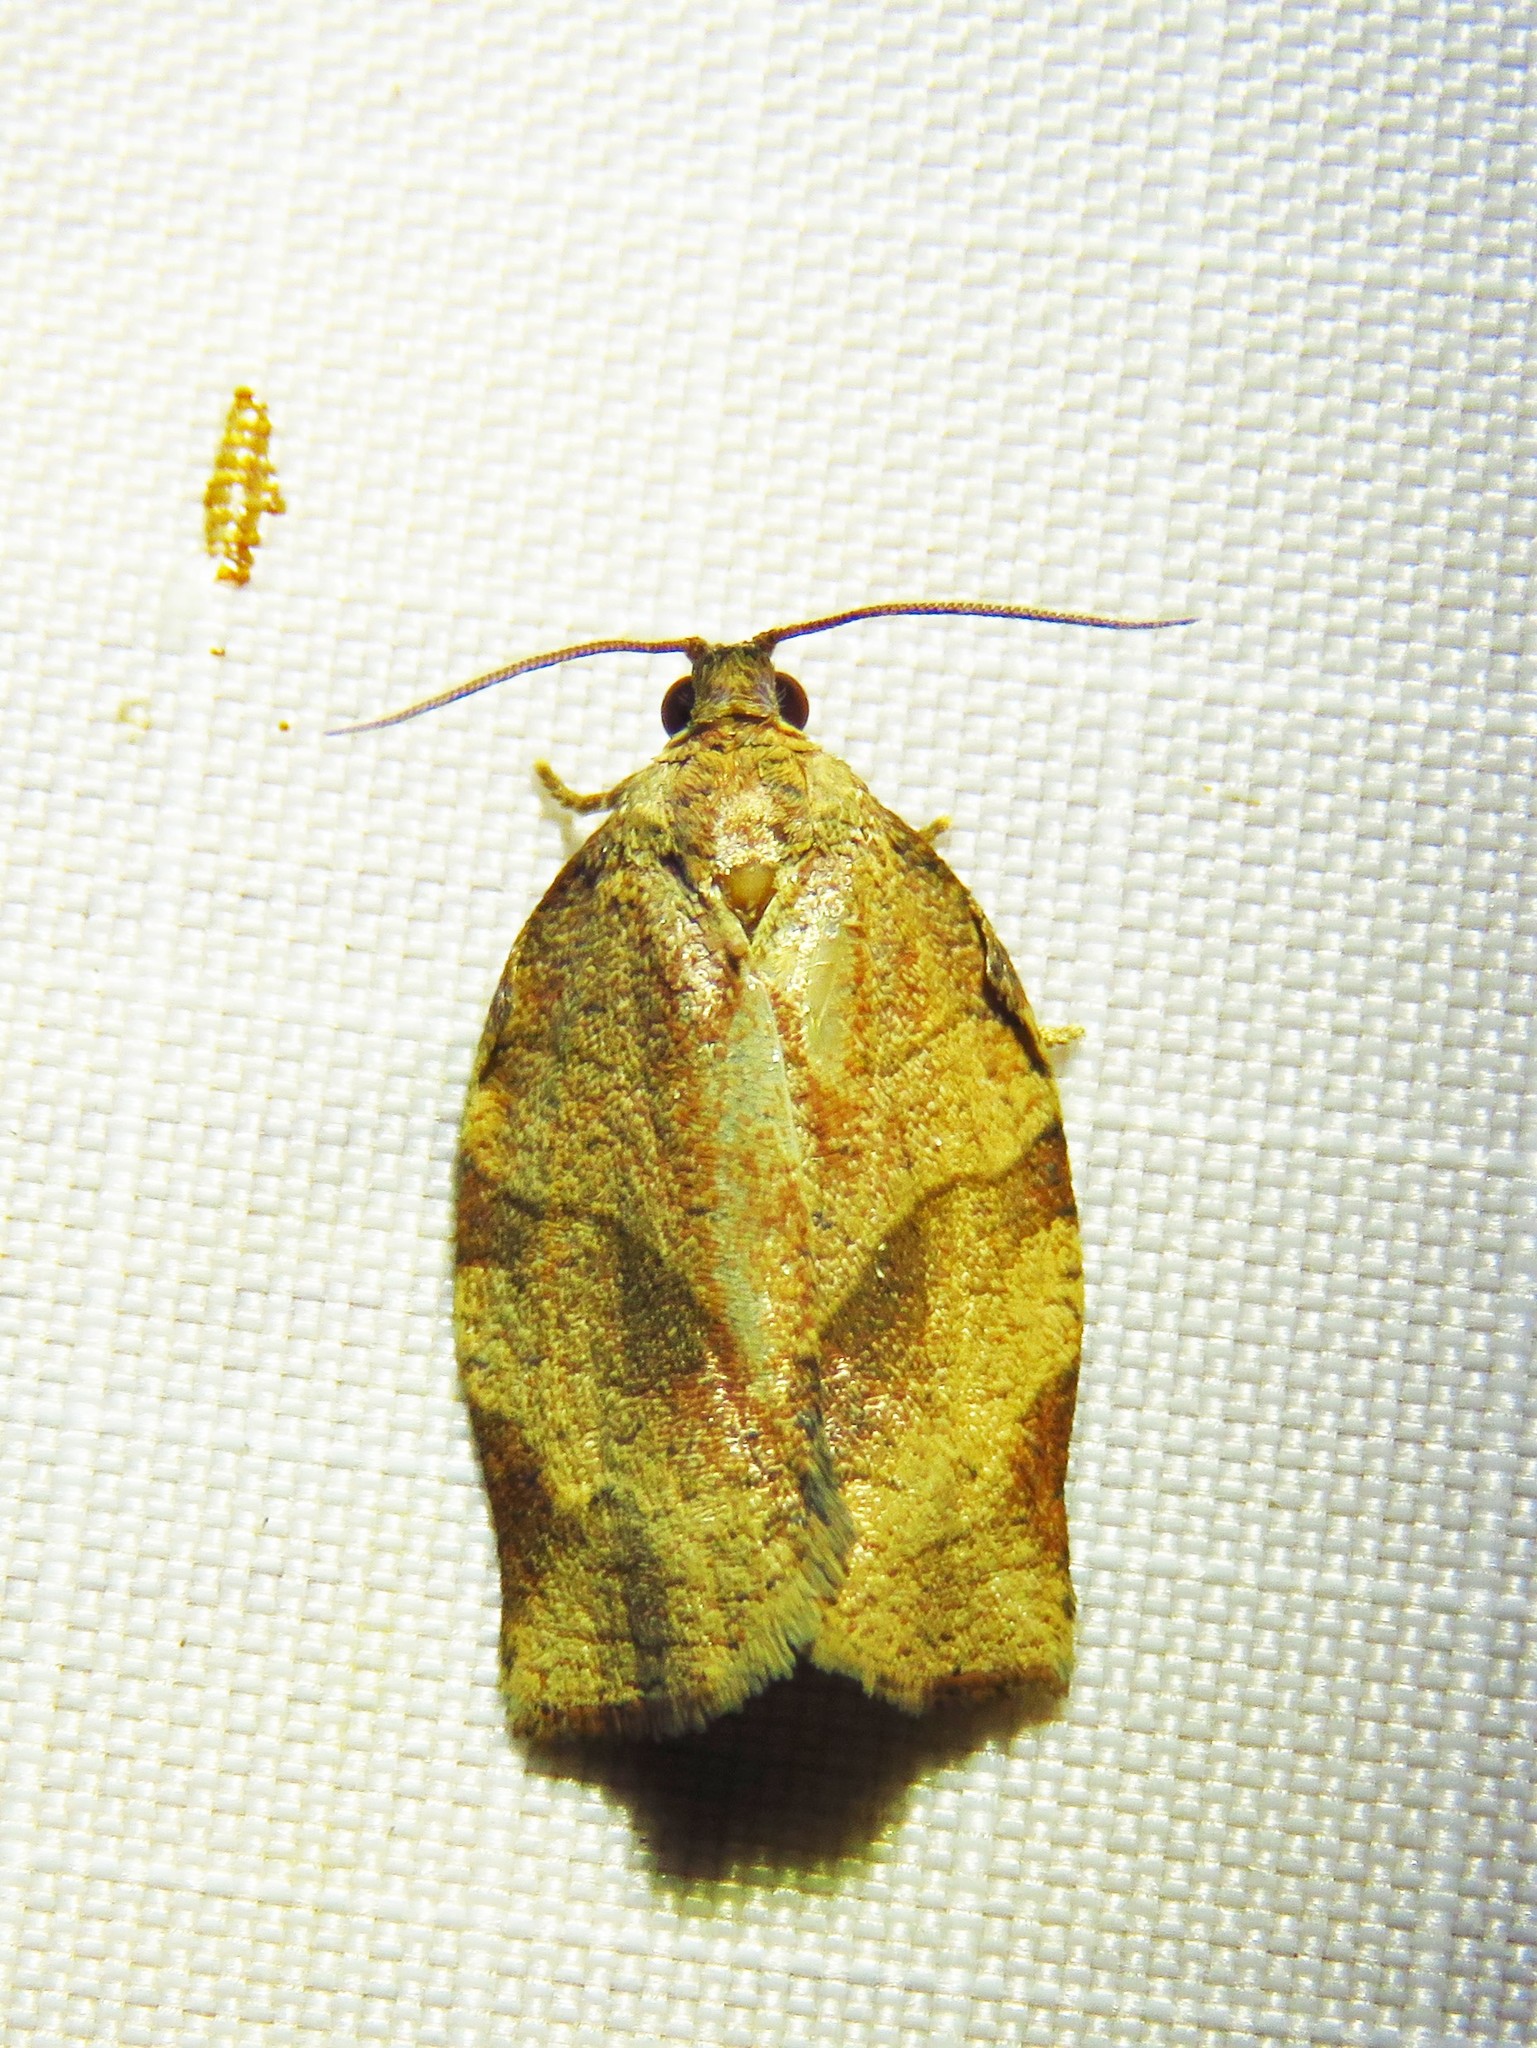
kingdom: Animalia
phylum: Arthropoda
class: Insecta
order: Lepidoptera
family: Tortricidae
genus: Choristoneura
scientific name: Choristoneura rosaceana
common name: Oblique-banded leafroller moth
